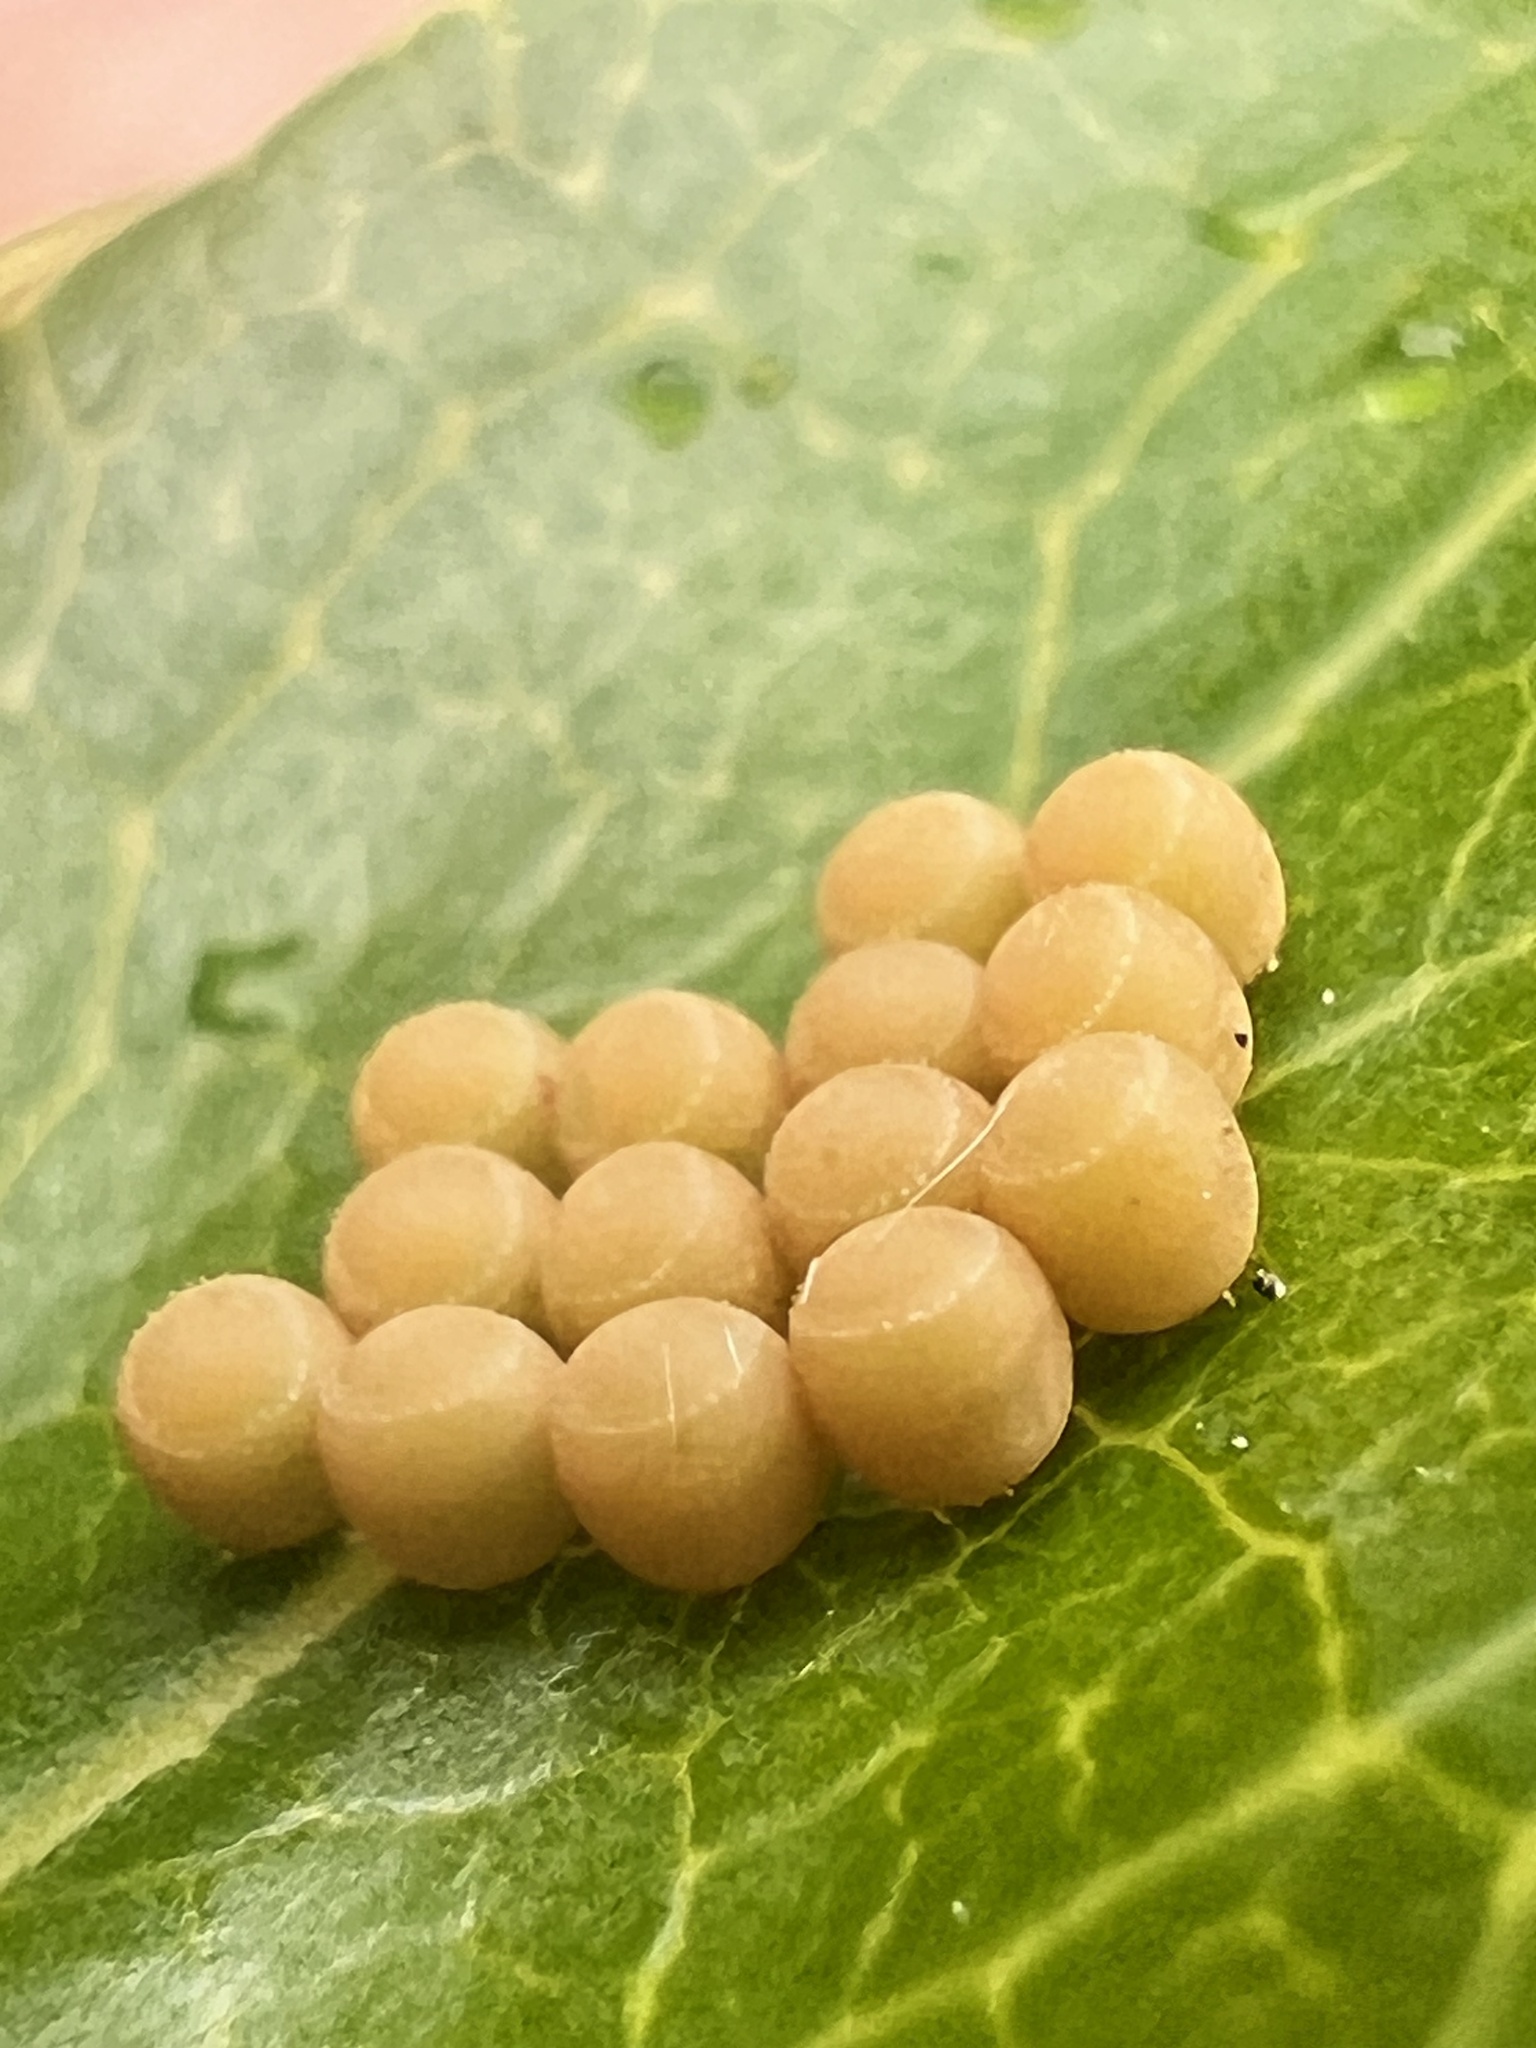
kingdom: Animalia
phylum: Arthropoda
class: Insecta
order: Hemiptera
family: Pentatomidae
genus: Glaucias
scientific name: Glaucias amyota
